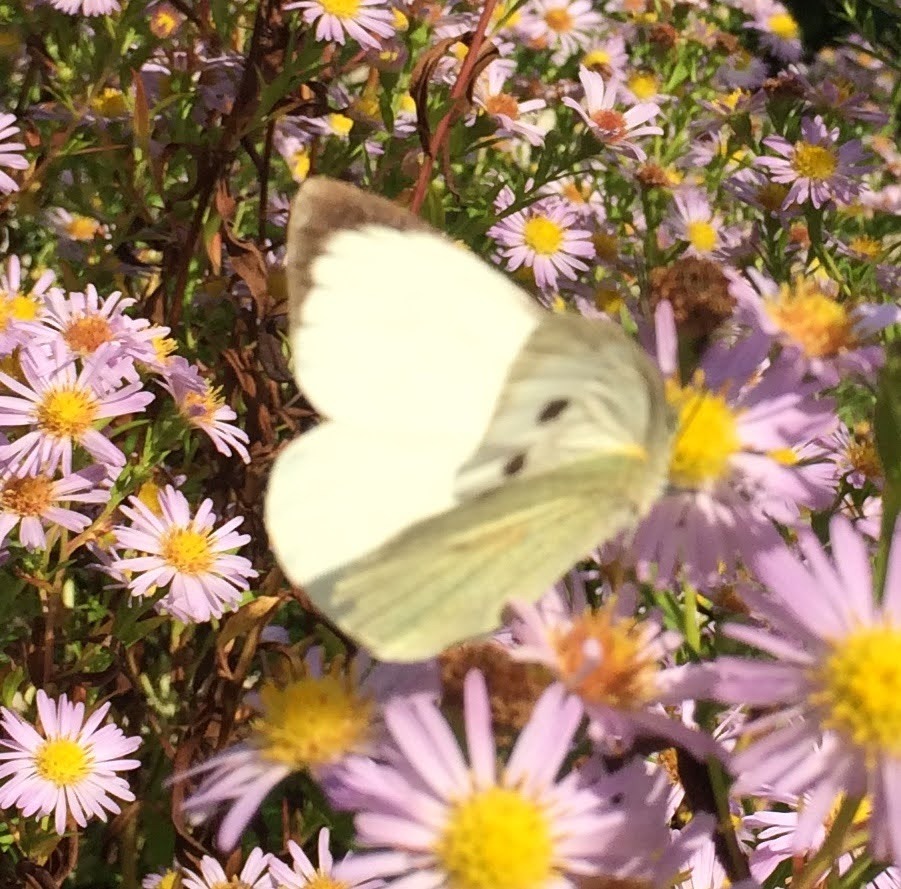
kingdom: Animalia
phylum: Arthropoda
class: Insecta
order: Lepidoptera
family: Pieridae
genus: Pieris
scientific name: Pieris brassicae
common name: Large white
